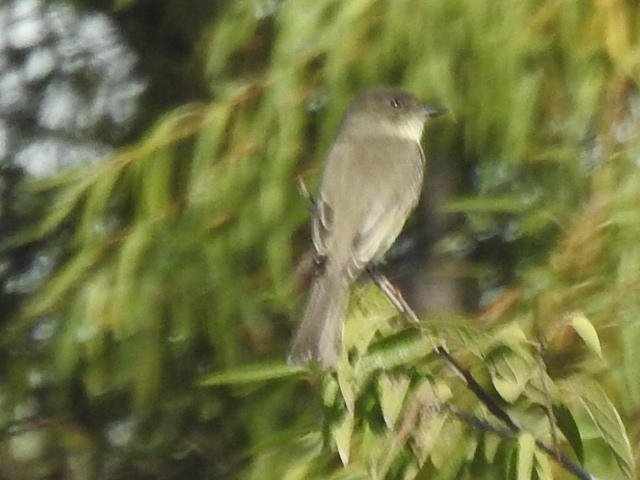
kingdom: Animalia
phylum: Chordata
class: Aves
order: Passeriformes
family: Tyrannidae
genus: Sayornis
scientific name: Sayornis phoebe
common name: Eastern phoebe
